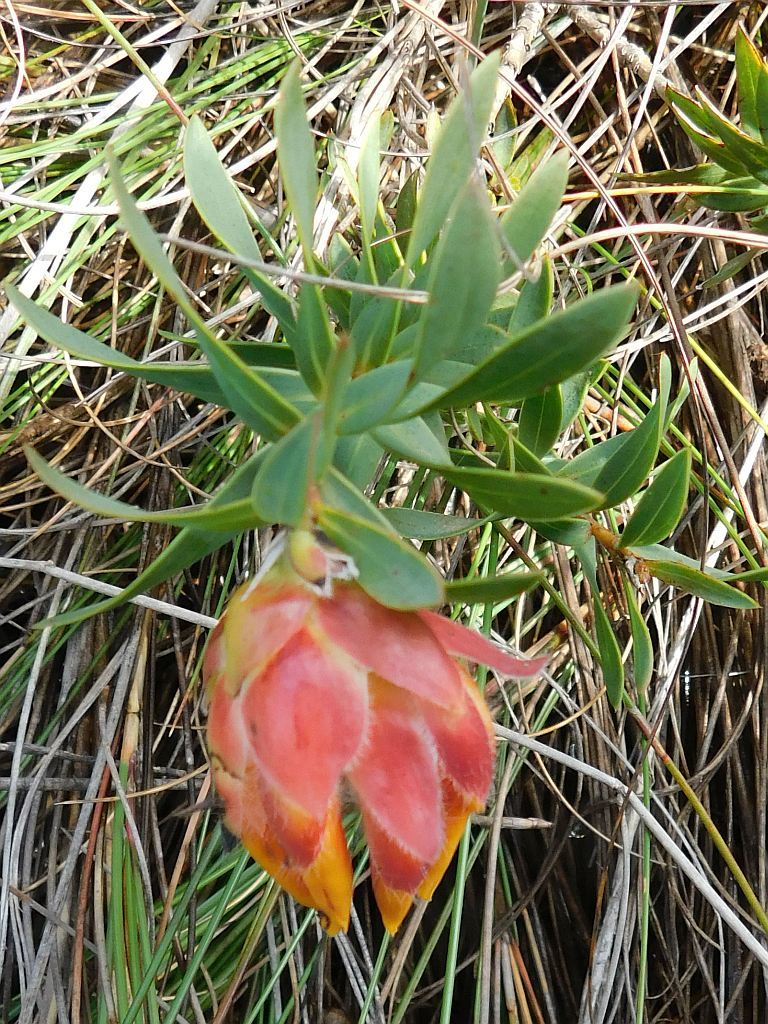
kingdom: Plantae
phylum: Tracheophyta
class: Magnoliopsida
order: Fabales
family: Fabaceae
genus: Liparia
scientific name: Liparia splendens
